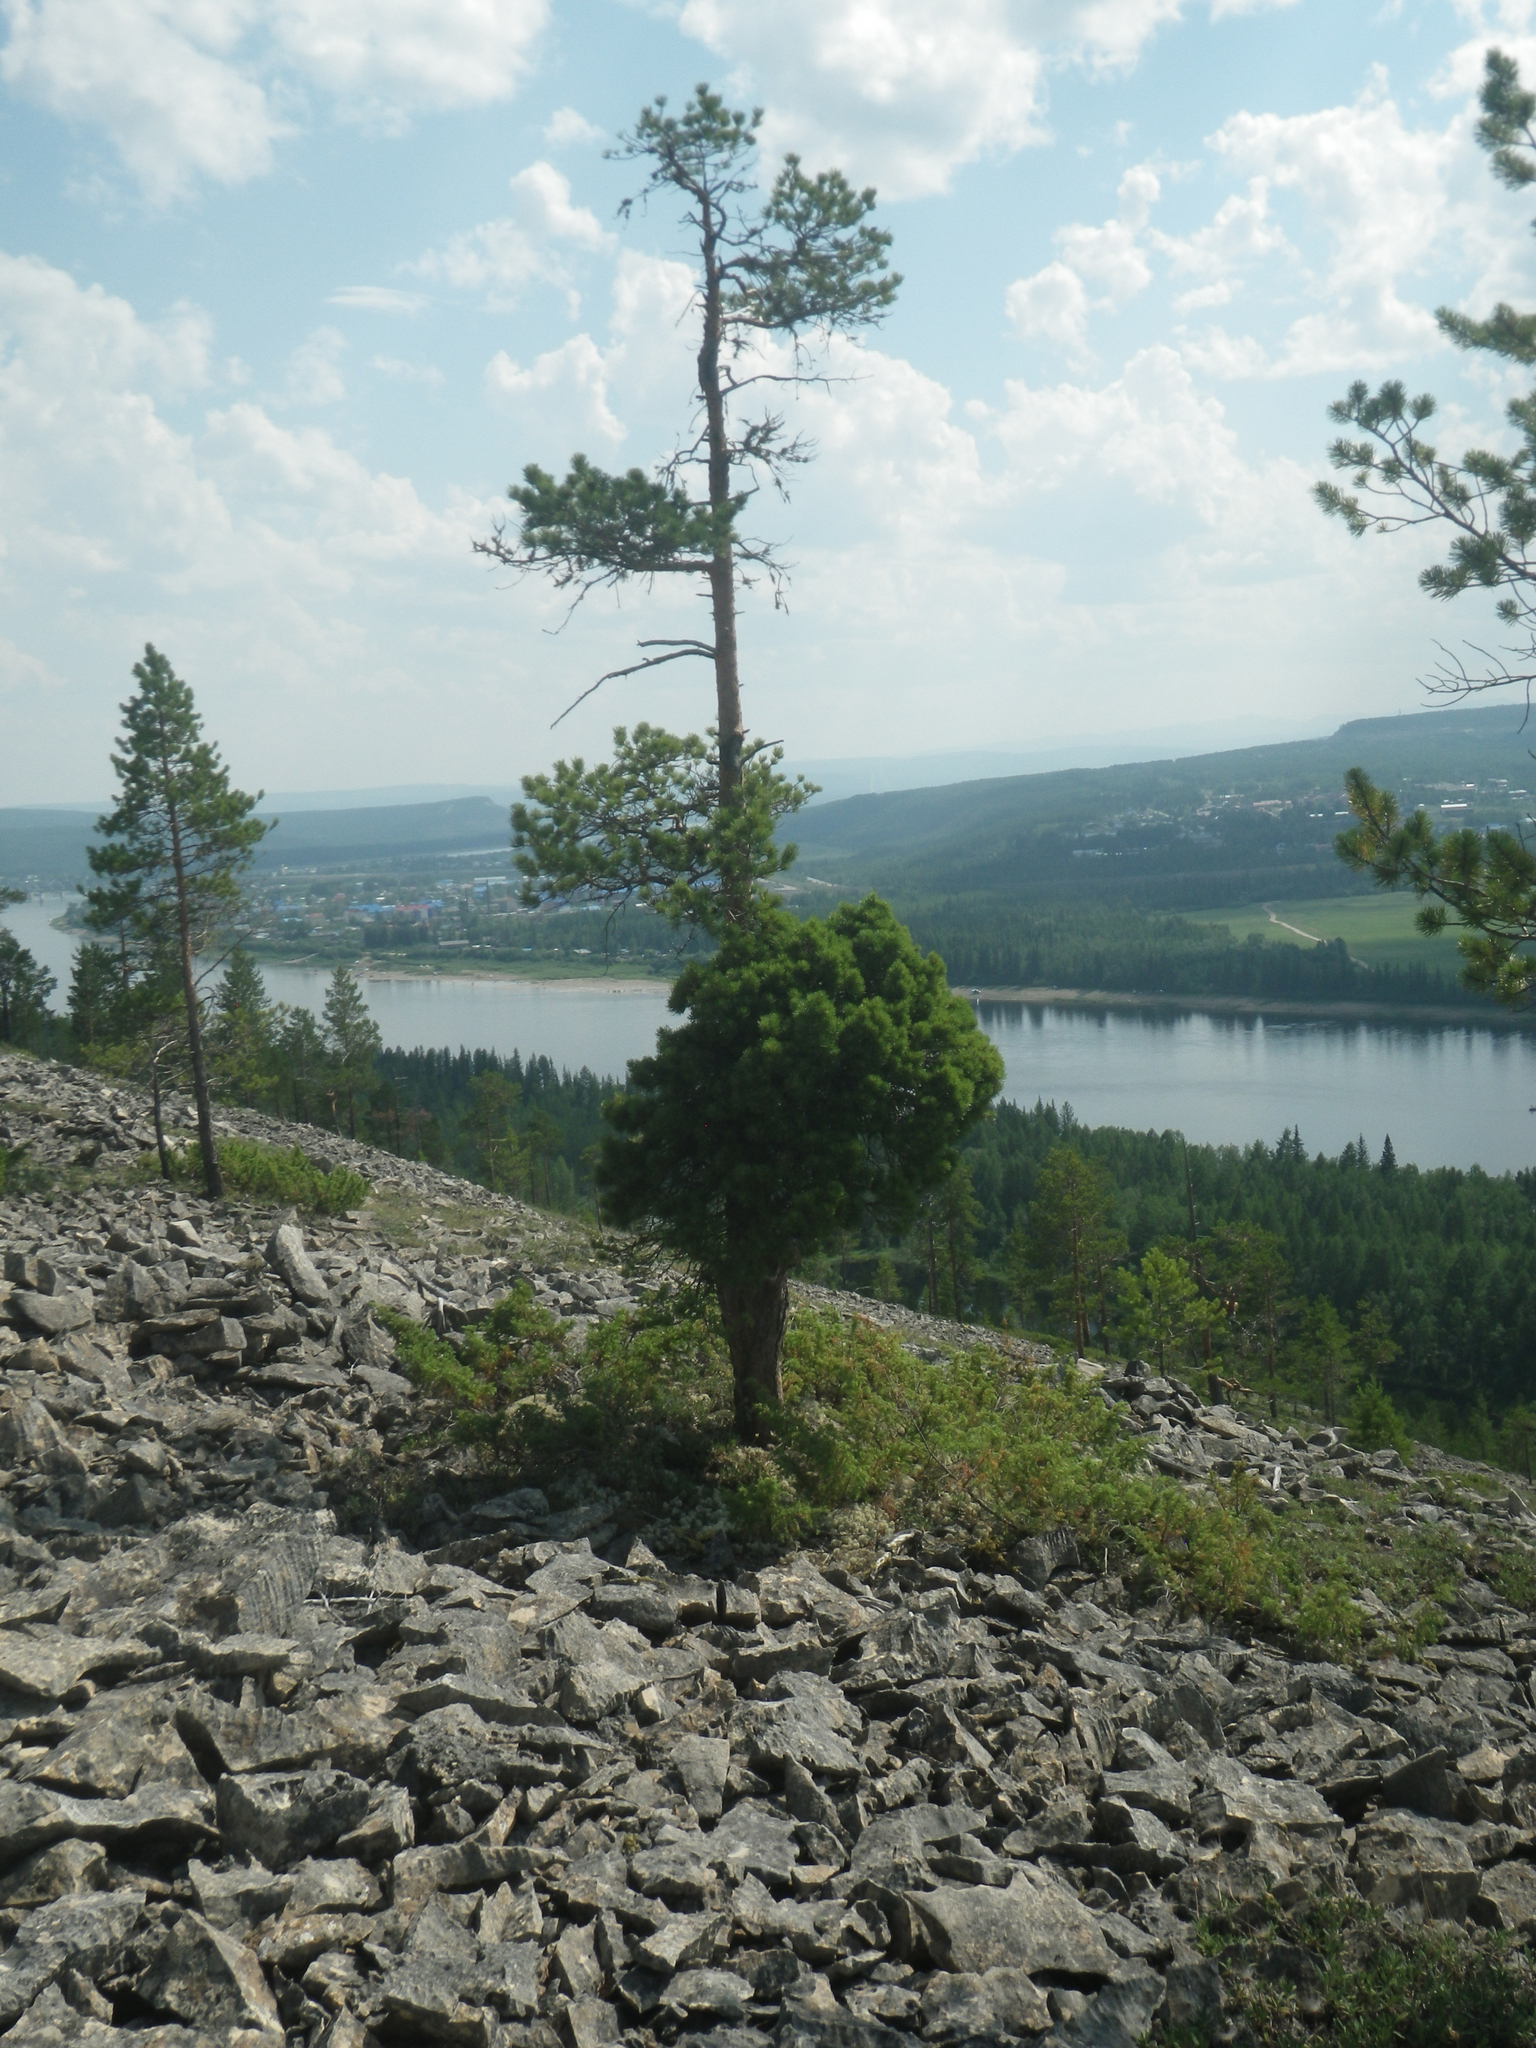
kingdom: Plantae
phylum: Tracheophyta
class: Pinopsida
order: Pinales
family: Pinaceae
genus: Pinus
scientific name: Pinus sylvestris
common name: Scots pine
